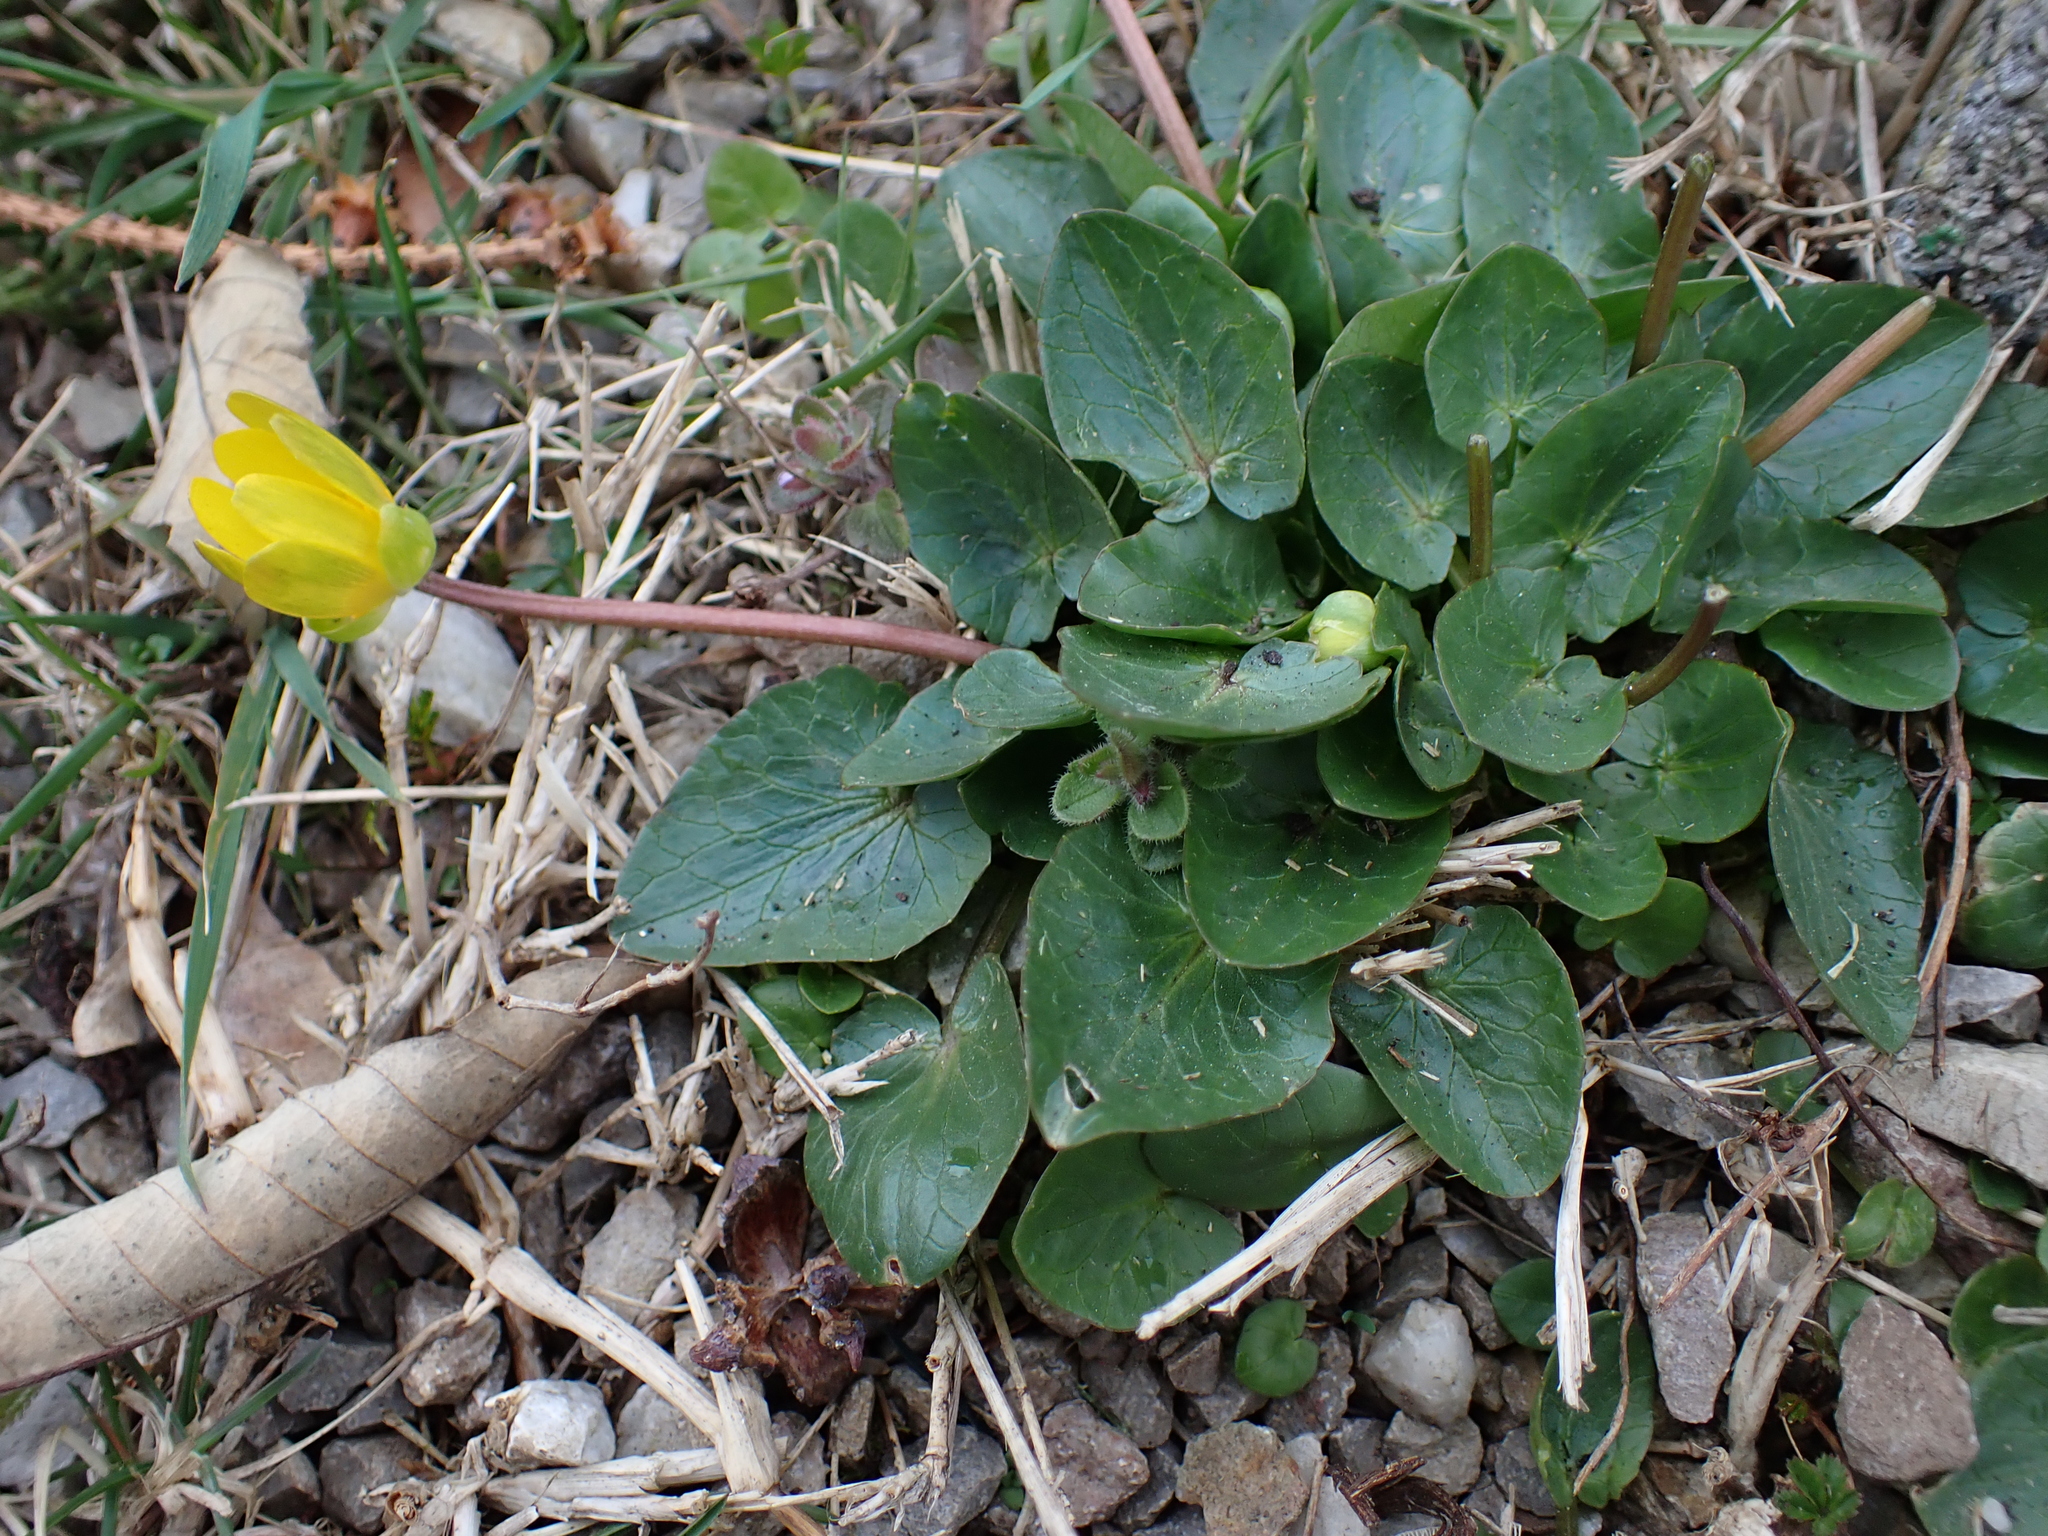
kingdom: Plantae
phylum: Tracheophyta
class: Magnoliopsida
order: Ranunculales
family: Ranunculaceae
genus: Ficaria
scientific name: Ficaria
